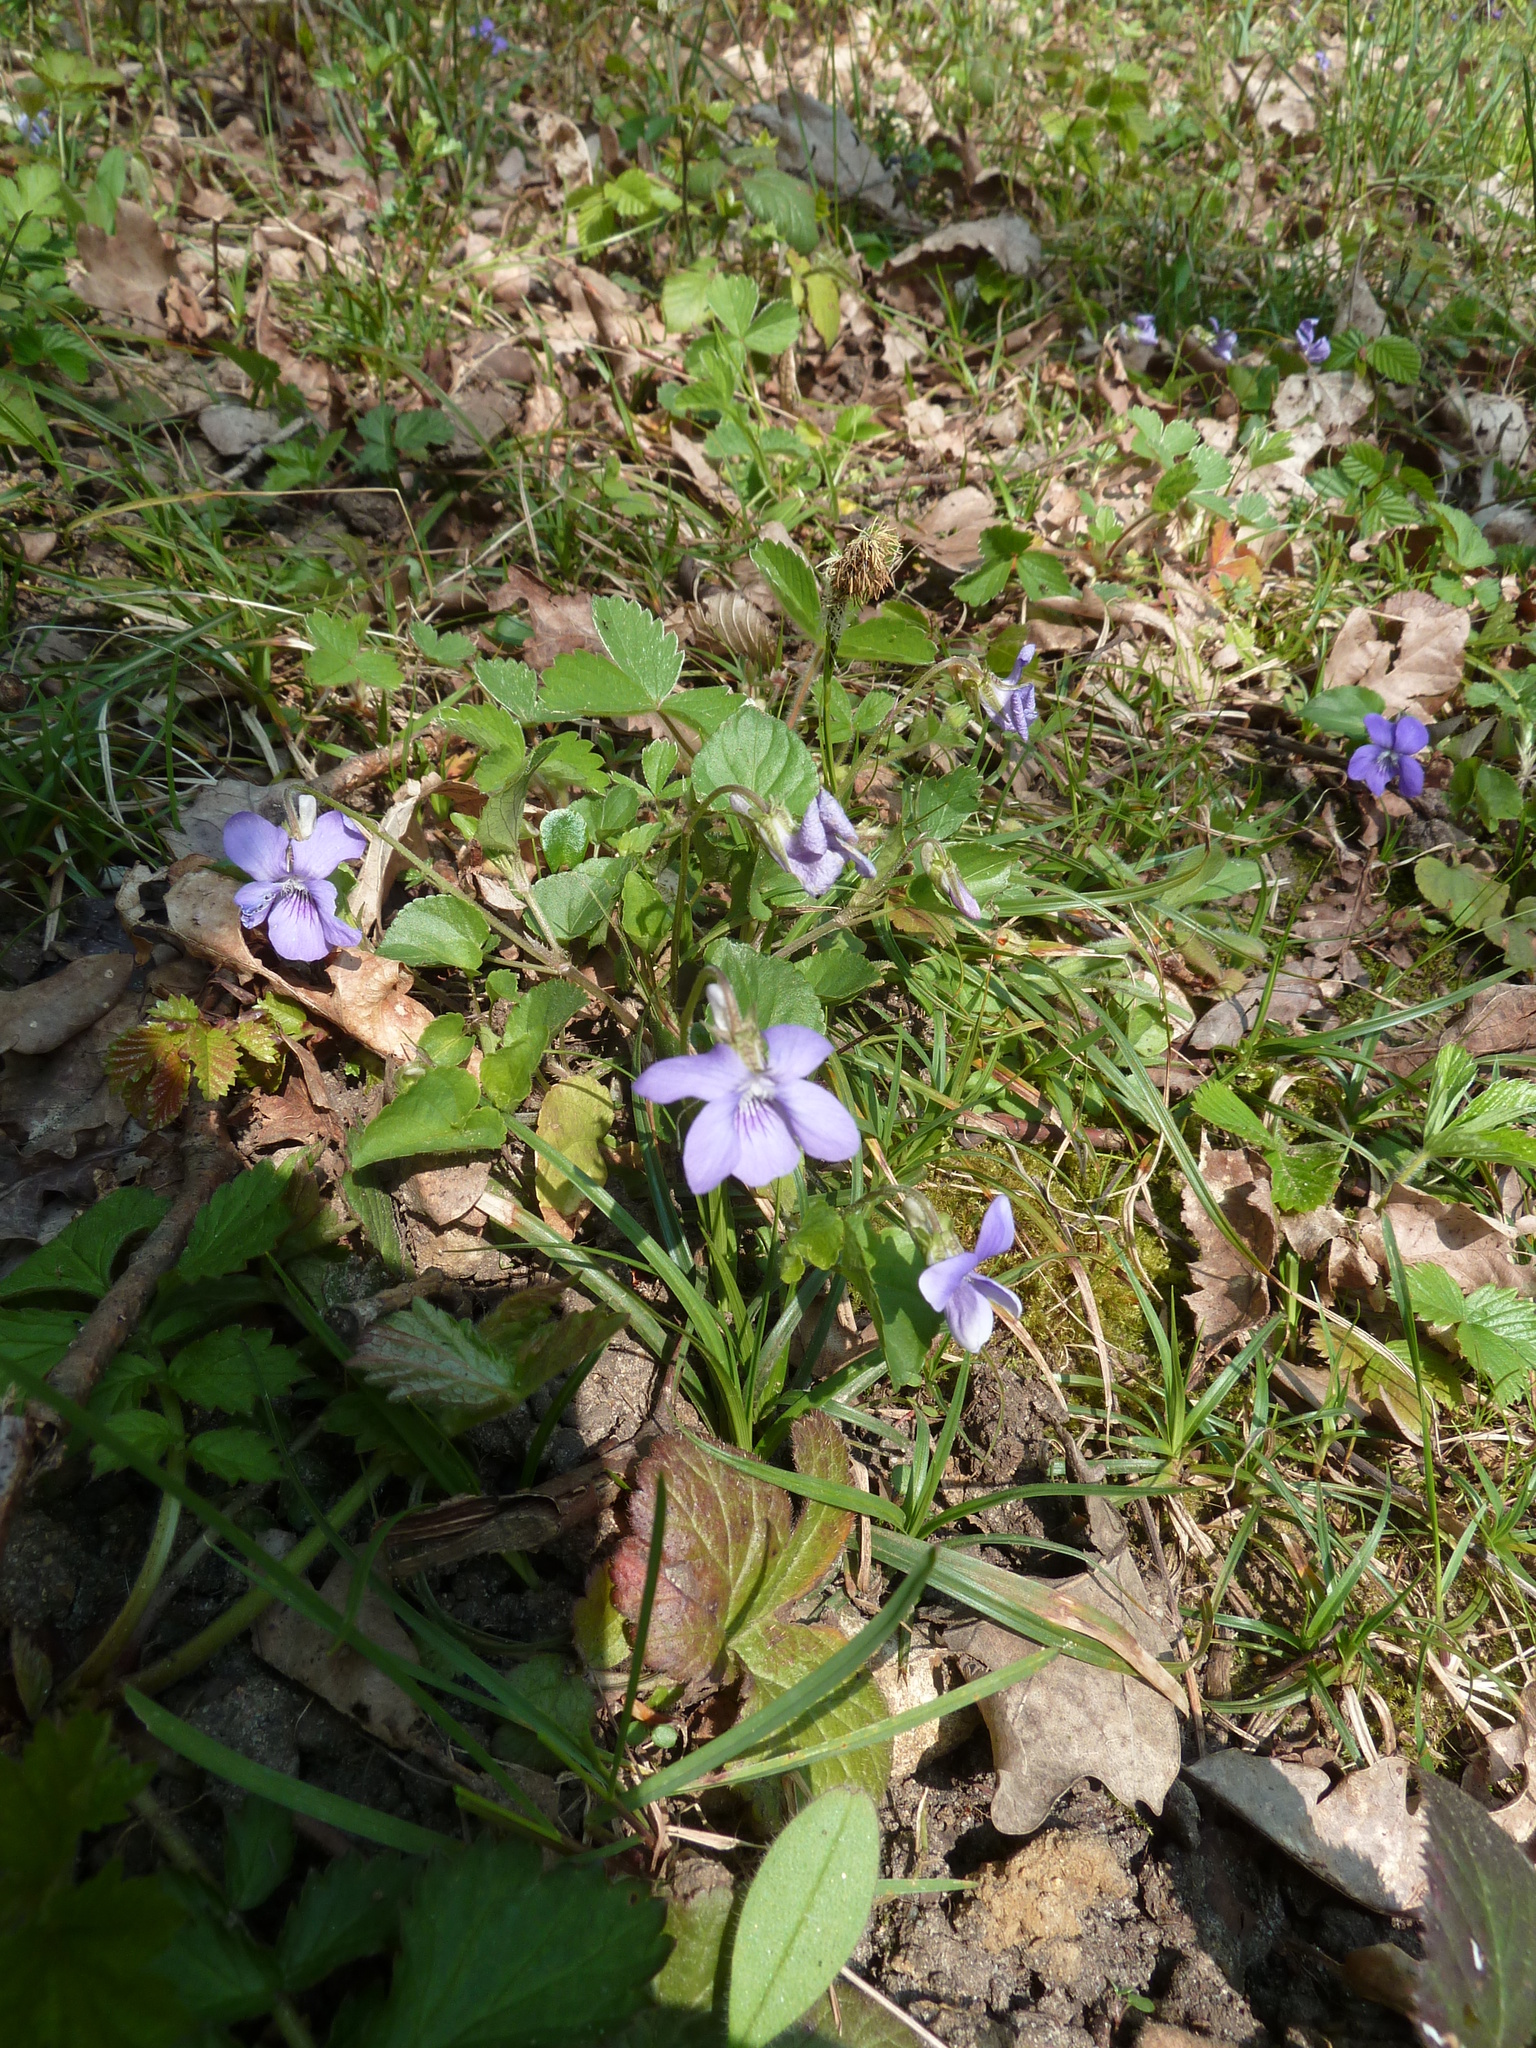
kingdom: Plantae
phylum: Tracheophyta
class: Magnoliopsida
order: Malpighiales
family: Violaceae
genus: Viola
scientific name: Viola riviniana
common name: Common dog-violet
